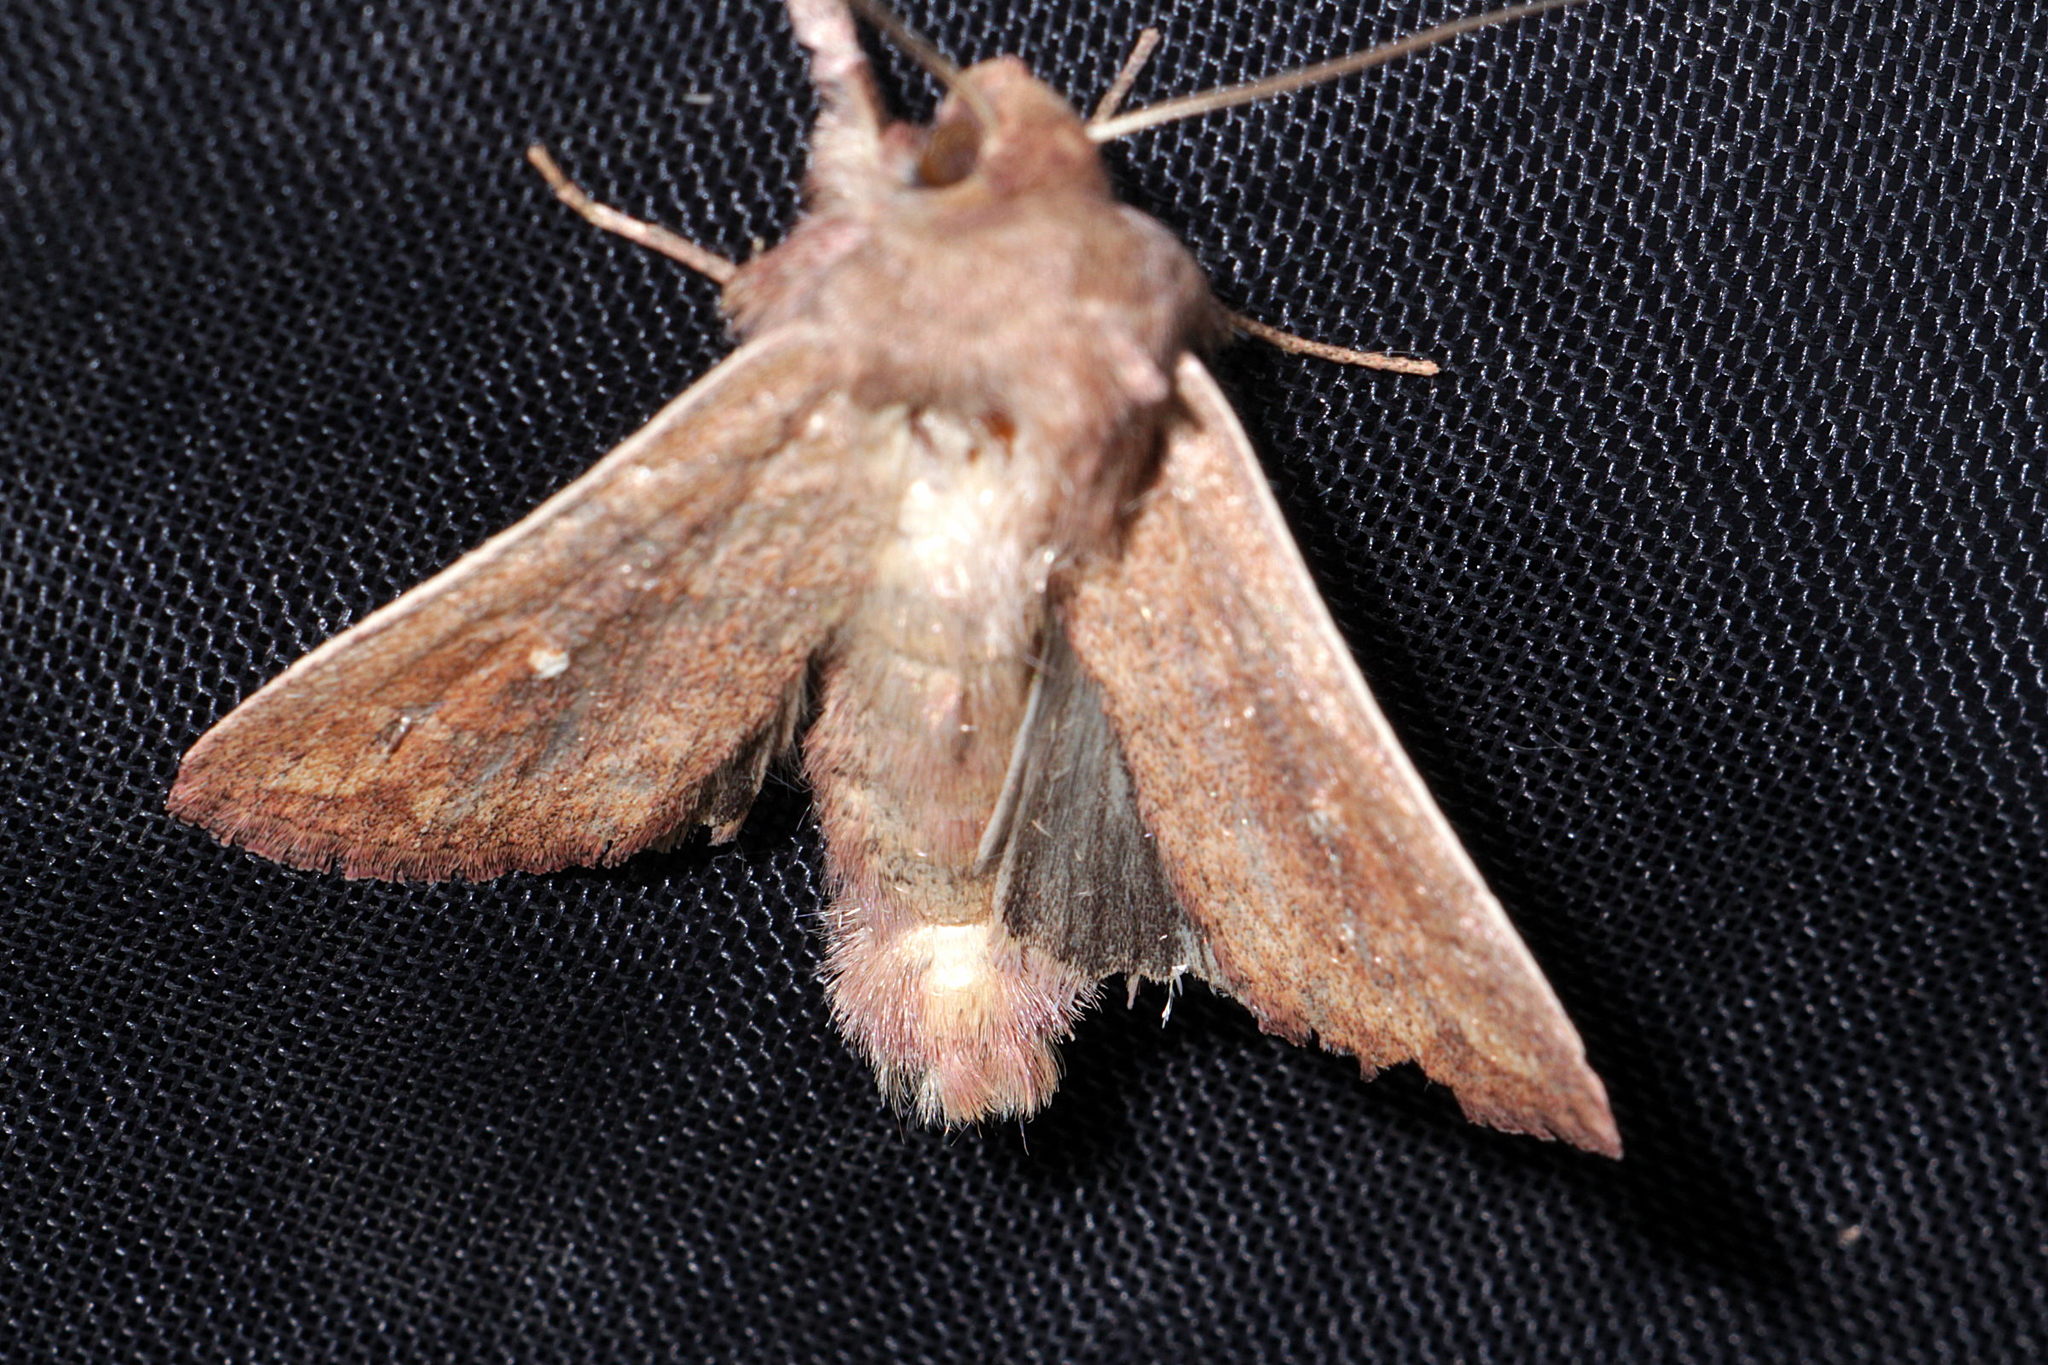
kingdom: Animalia
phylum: Arthropoda
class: Insecta
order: Lepidoptera
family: Noctuidae
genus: Mythimna
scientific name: Mythimna albipuncta
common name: White-point
